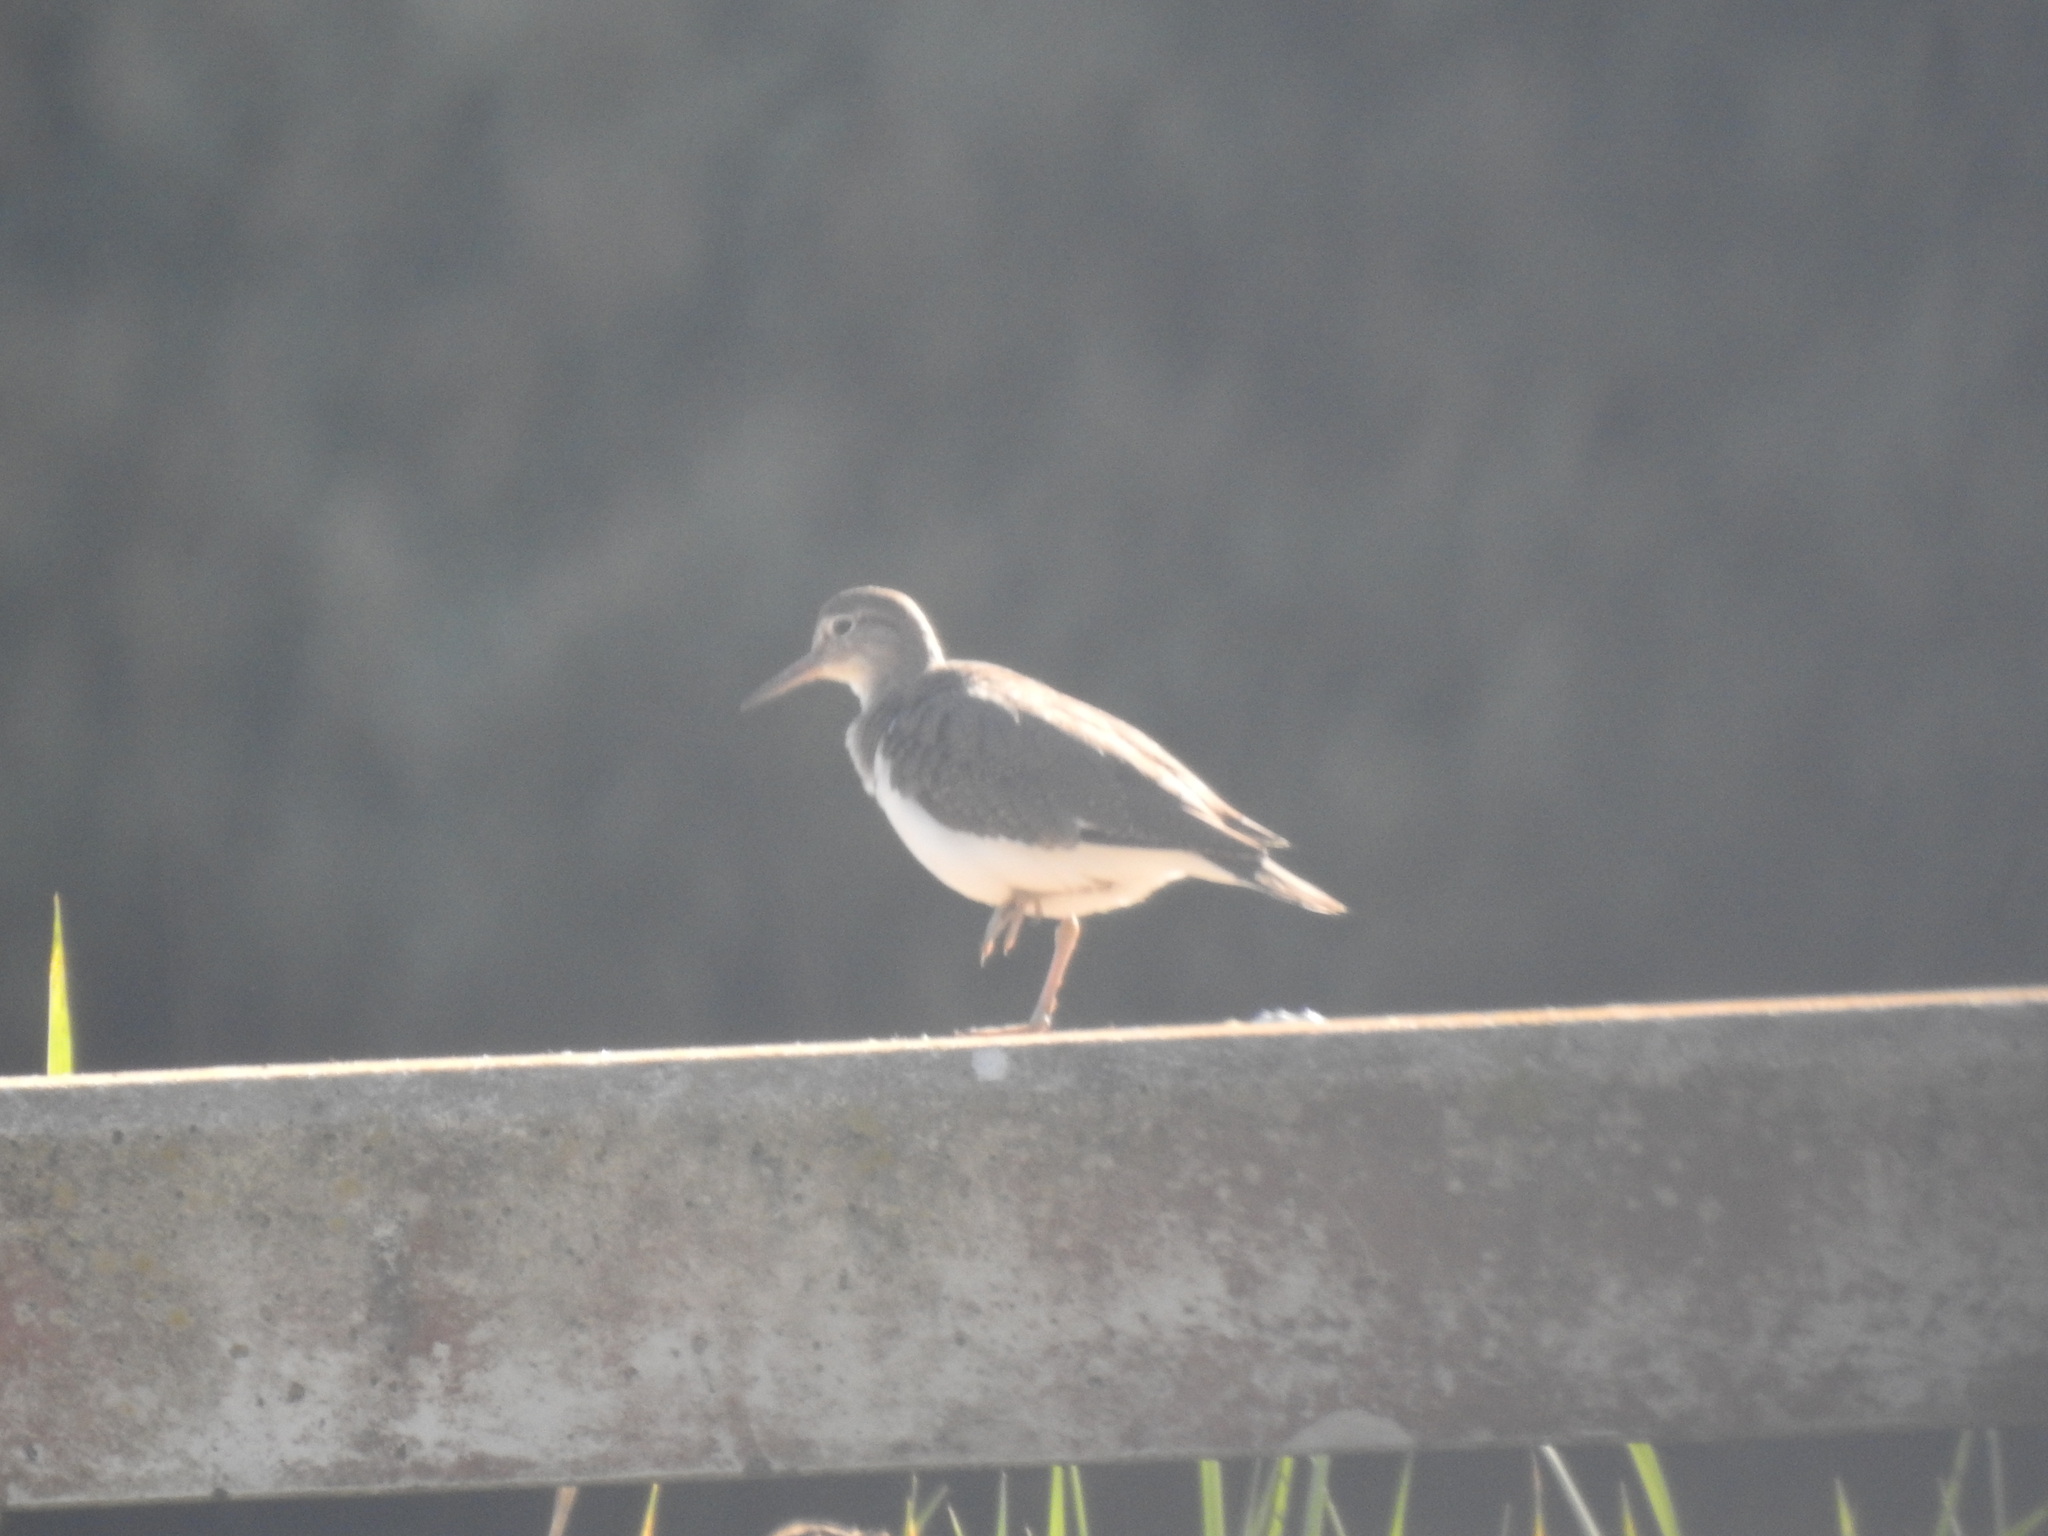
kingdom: Animalia
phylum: Chordata
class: Aves
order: Charadriiformes
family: Scolopacidae
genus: Actitis
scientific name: Actitis hypoleucos
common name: Common sandpiper
